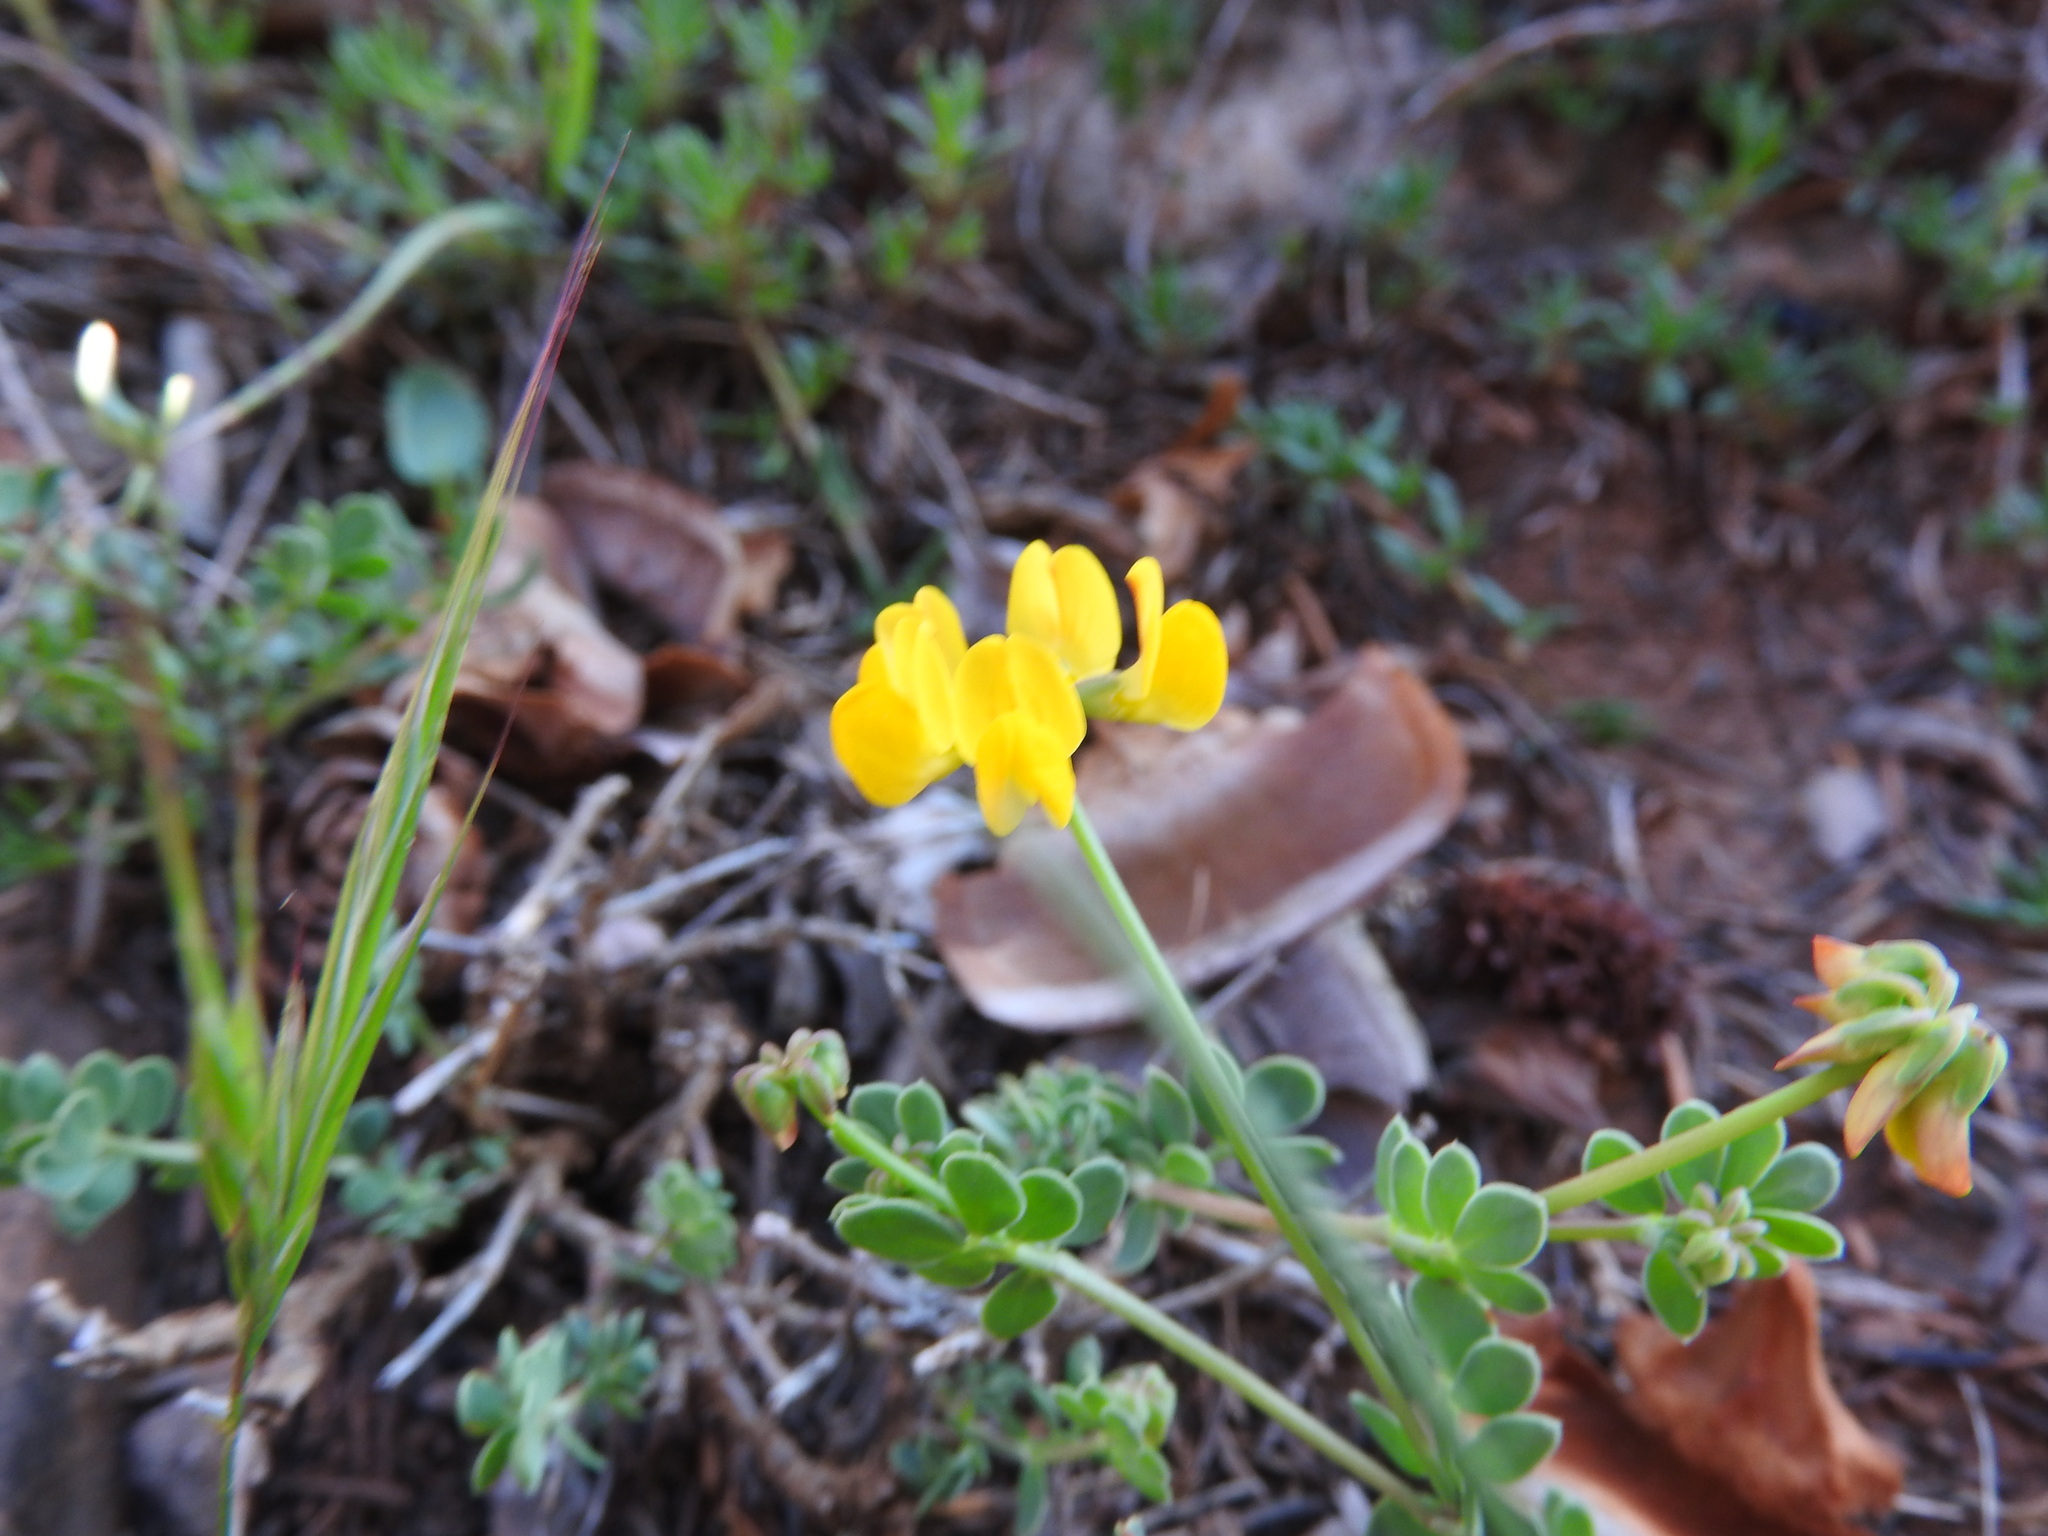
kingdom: Plantae
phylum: Tracheophyta
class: Magnoliopsida
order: Fabales
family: Fabaceae
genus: Coronilla
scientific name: Coronilla minima
